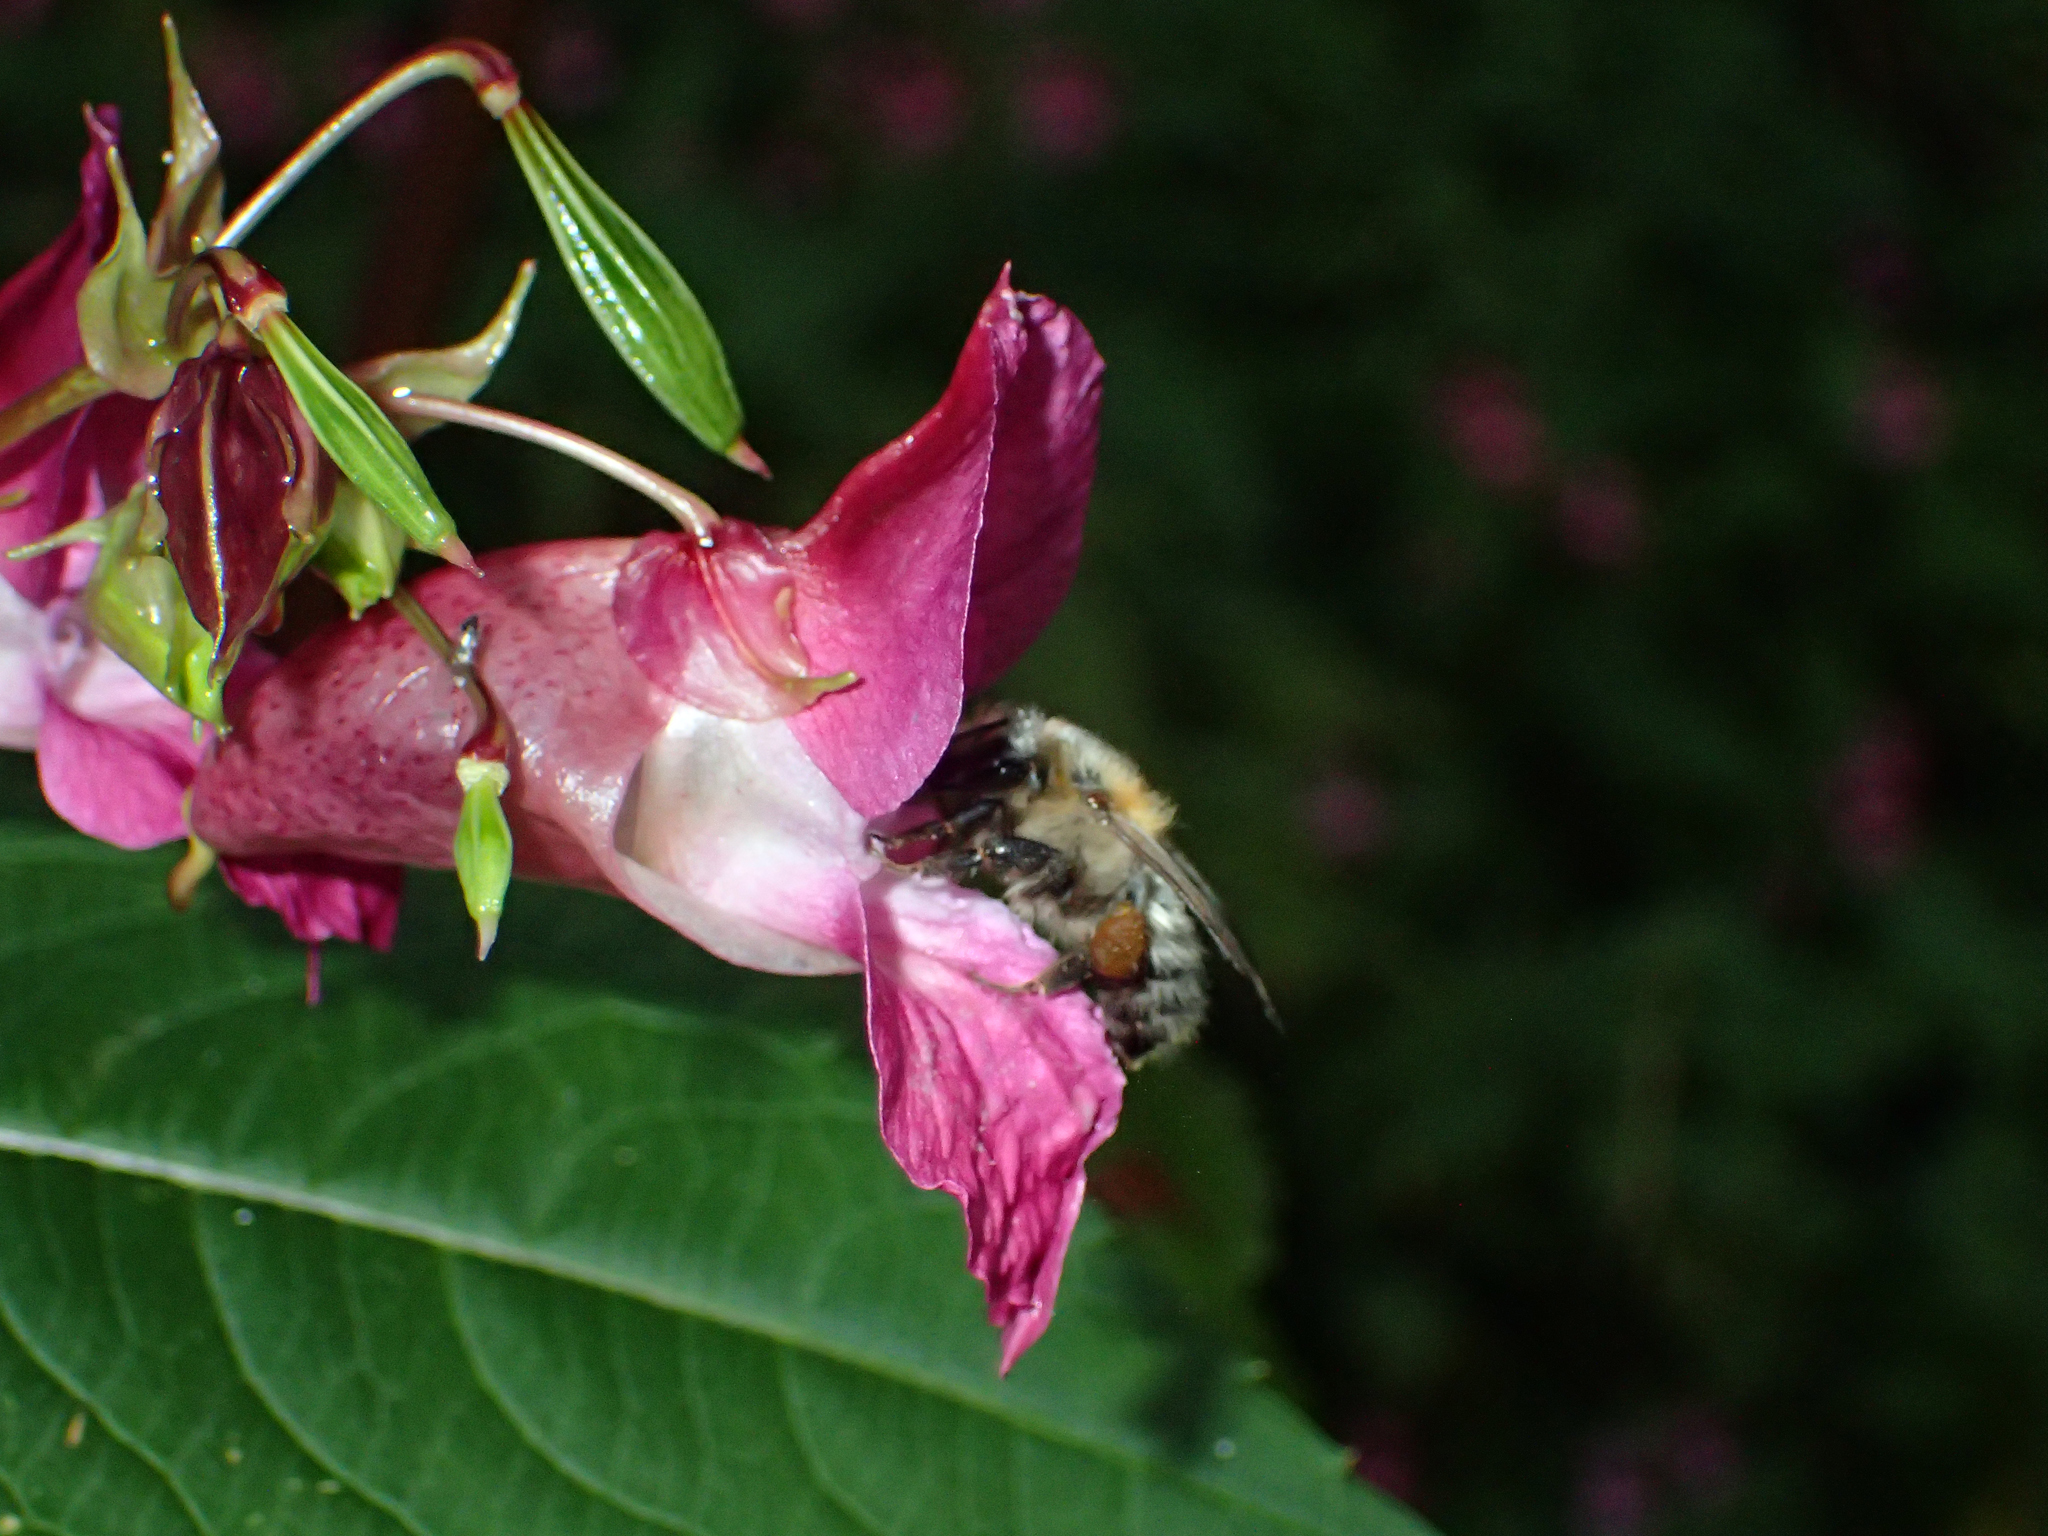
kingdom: Animalia
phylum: Arthropoda
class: Insecta
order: Hymenoptera
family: Apidae
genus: Bombus
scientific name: Bombus pascuorum
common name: Common carder bee
